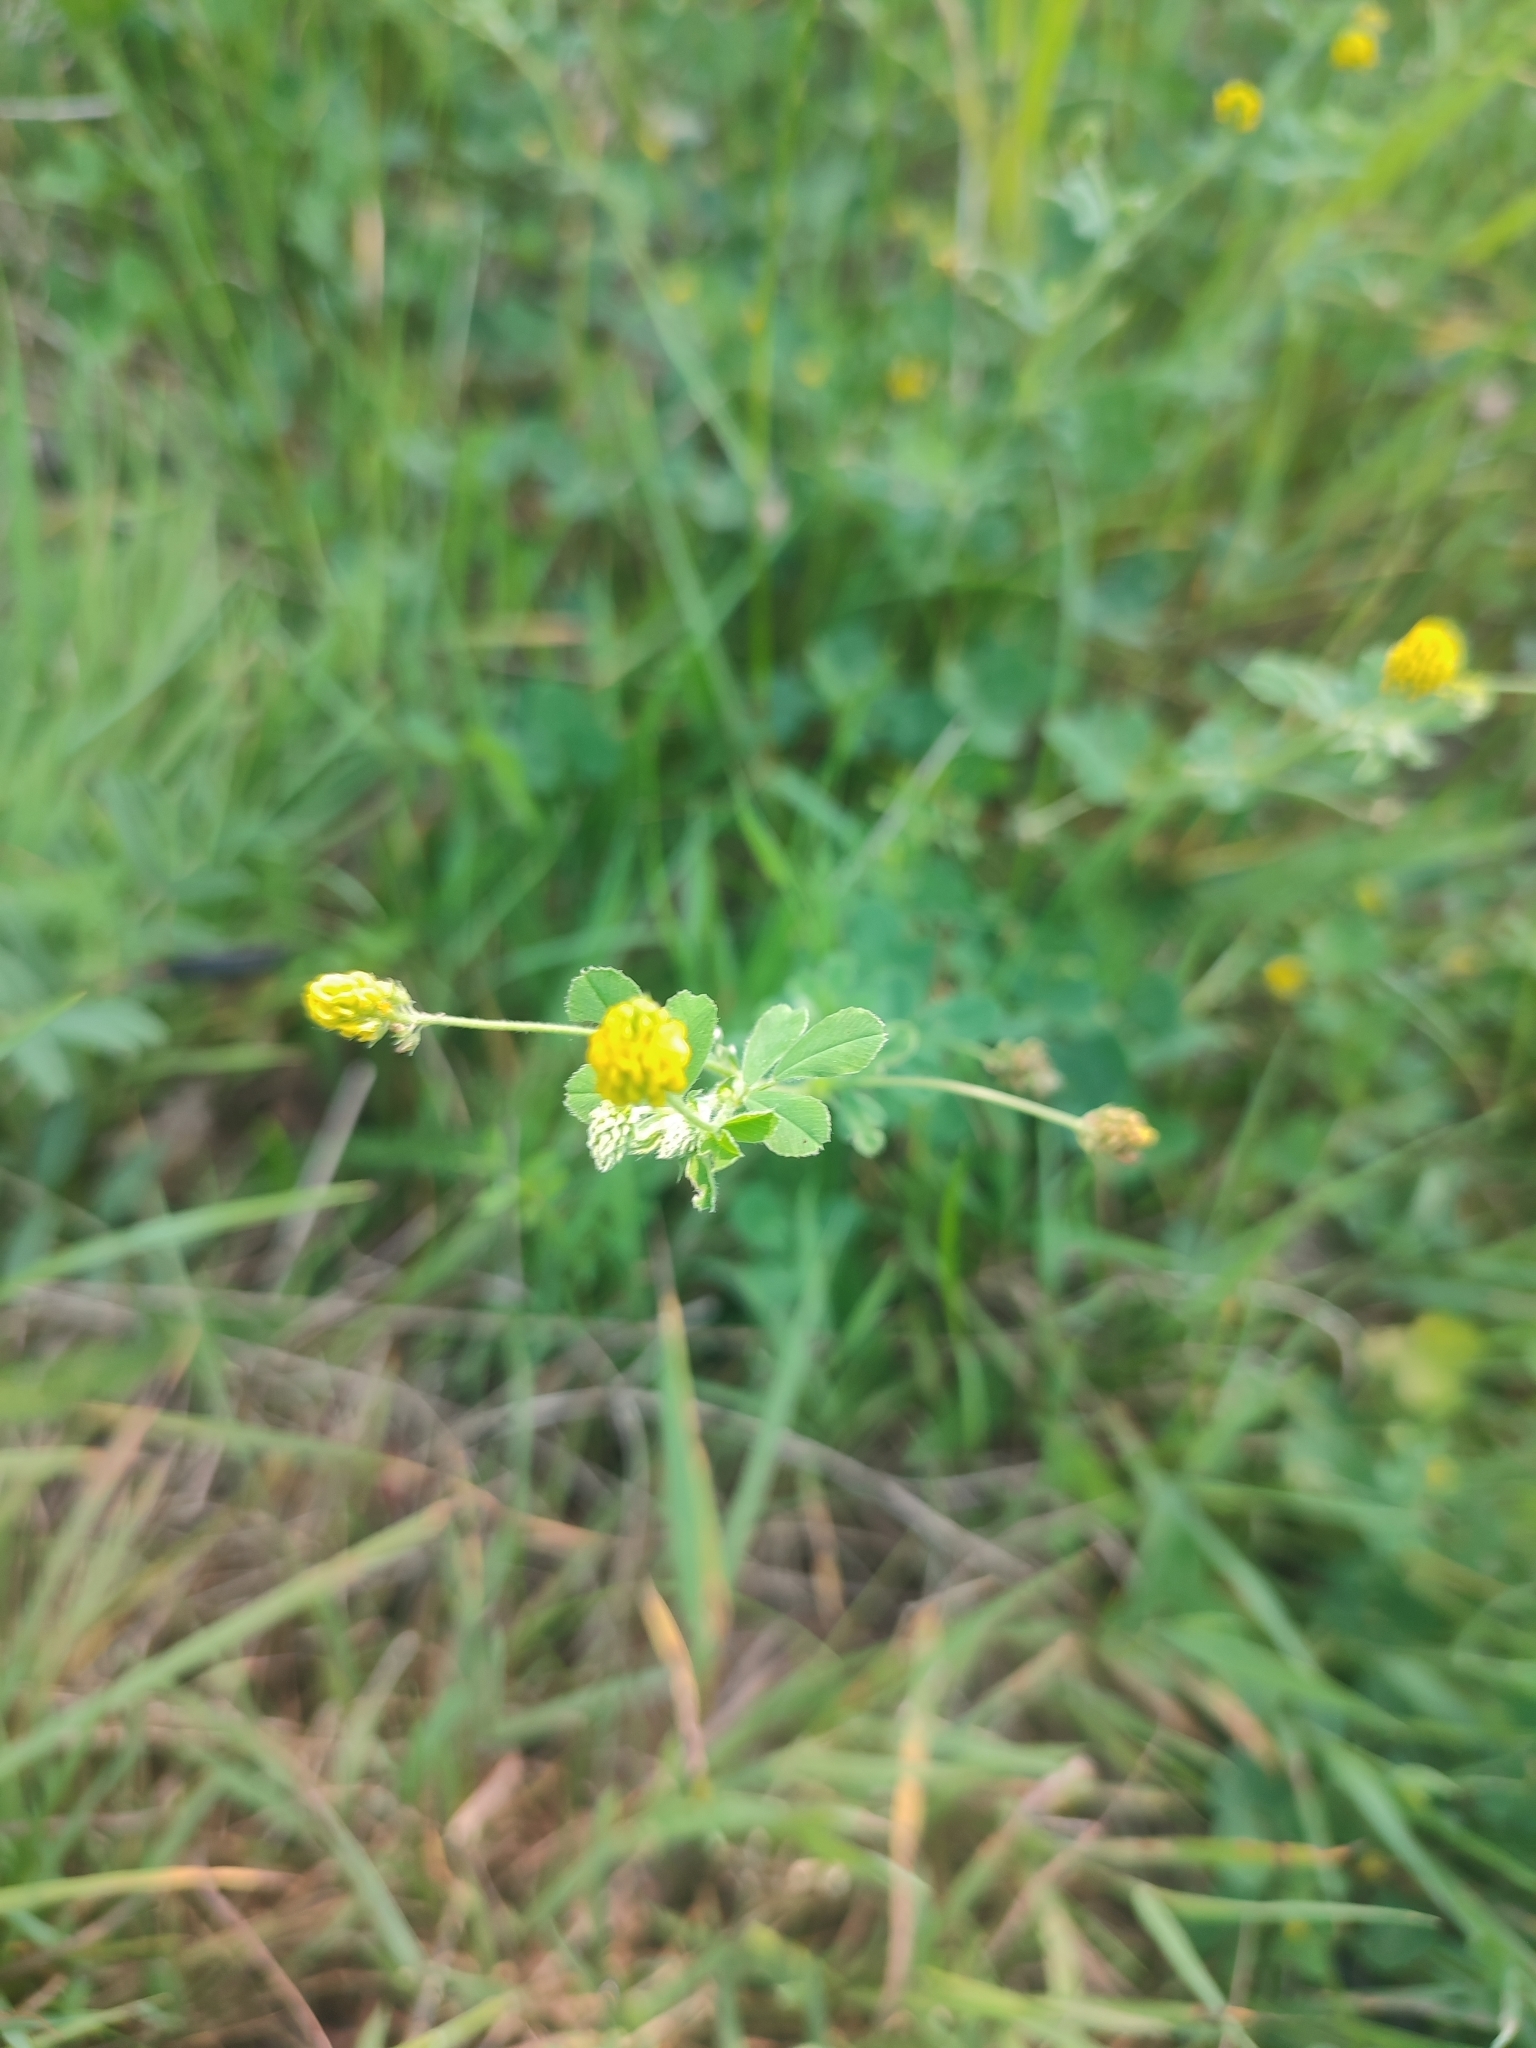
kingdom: Plantae
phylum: Tracheophyta
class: Magnoliopsida
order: Fabales
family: Fabaceae
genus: Medicago
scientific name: Medicago lupulina
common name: Black medick
